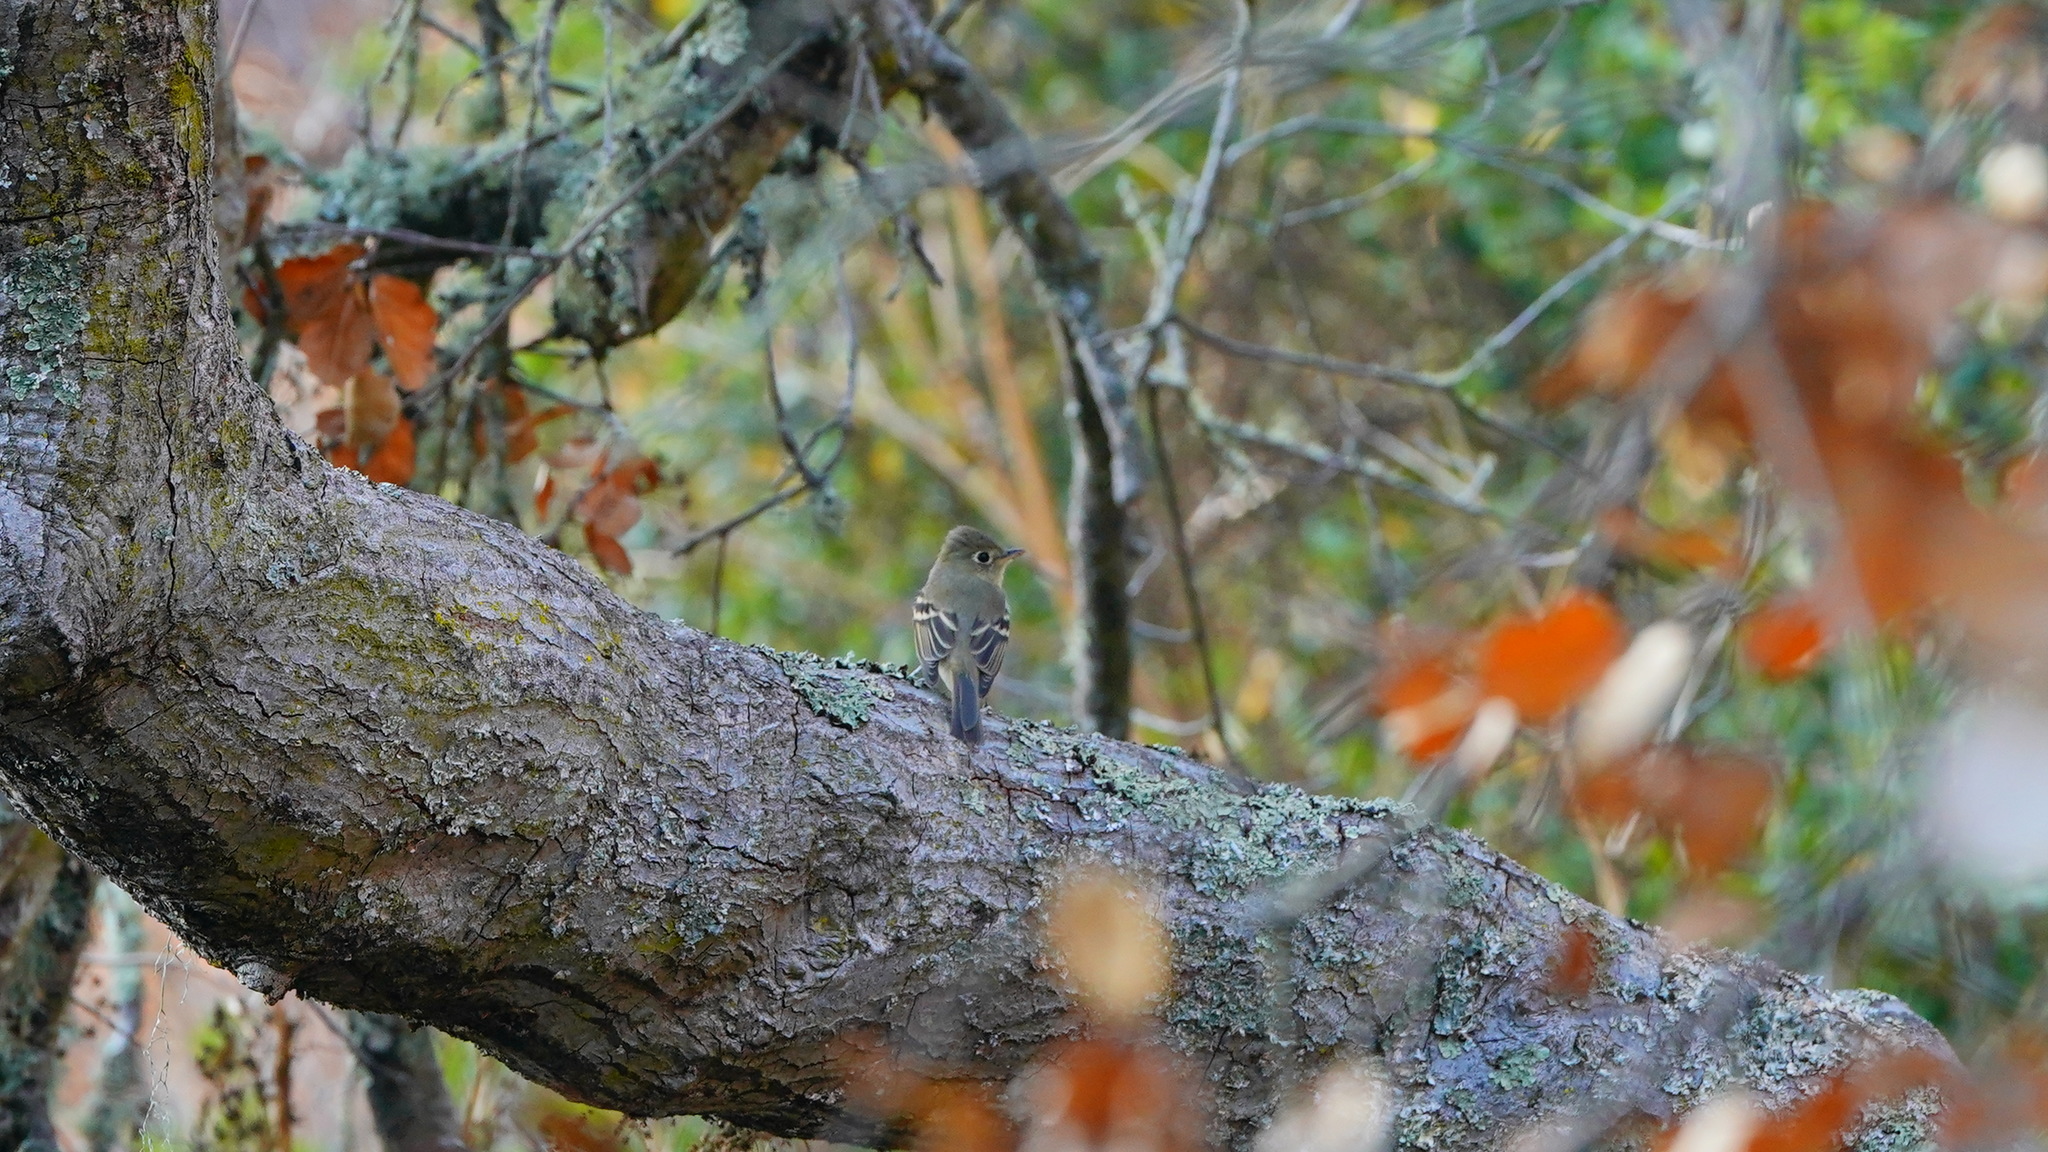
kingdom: Animalia
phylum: Chordata
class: Aves
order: Passeriformes
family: Tyrannidae
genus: Empidonax
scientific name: Empidonax difficilis
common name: Pacific-slope flycatcher
